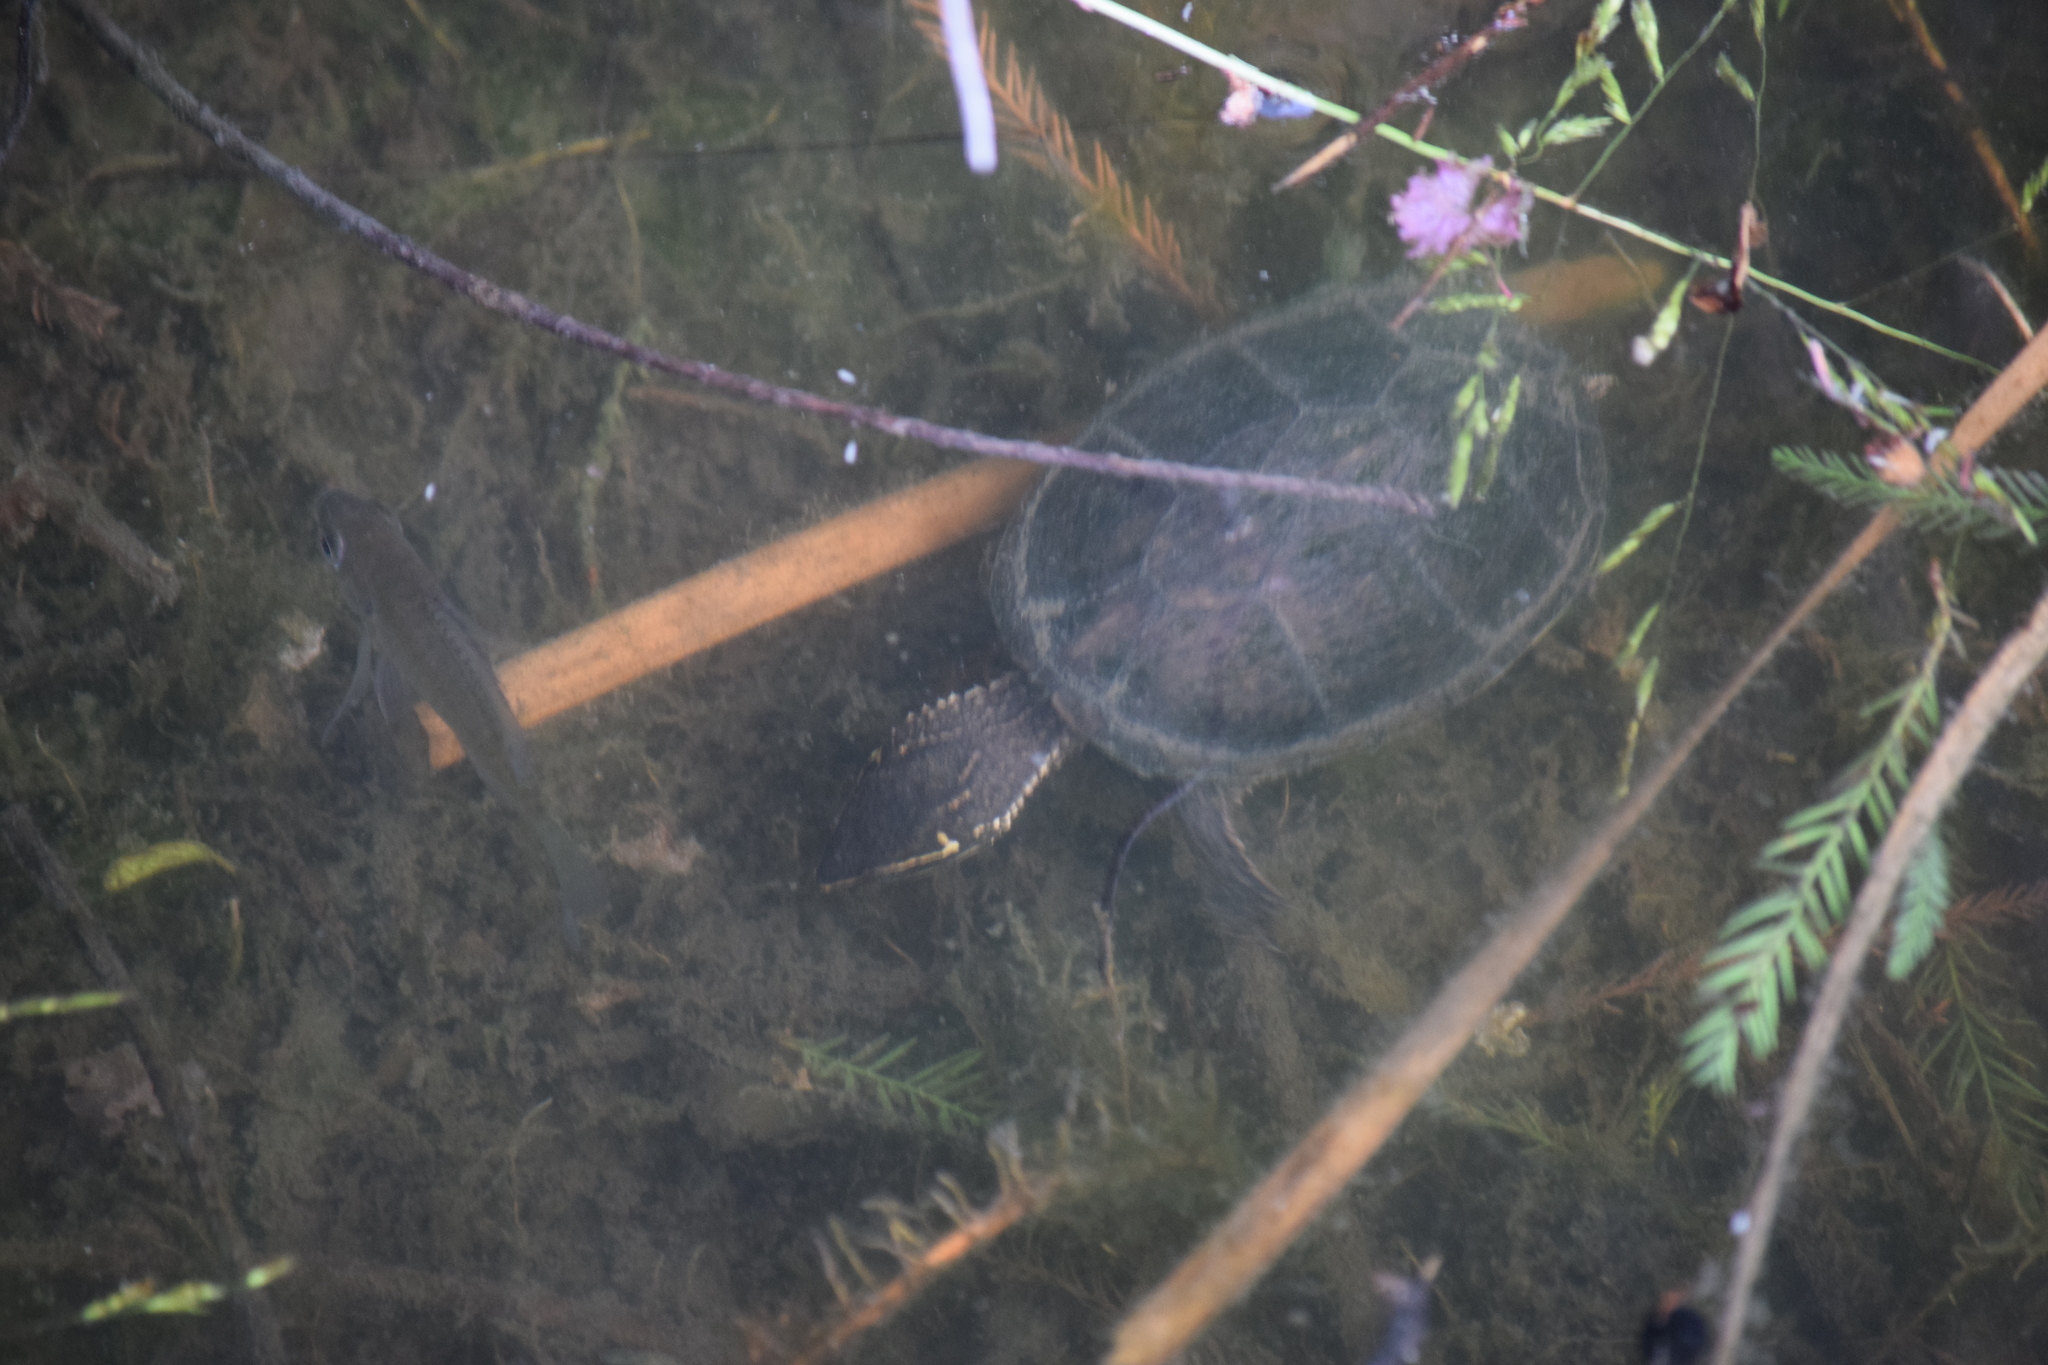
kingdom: Animalia
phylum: Chordata
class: Testudines
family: Kinosternidae
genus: Sternotherus
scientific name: Sternotherus odoratus
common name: Common musk turtle
